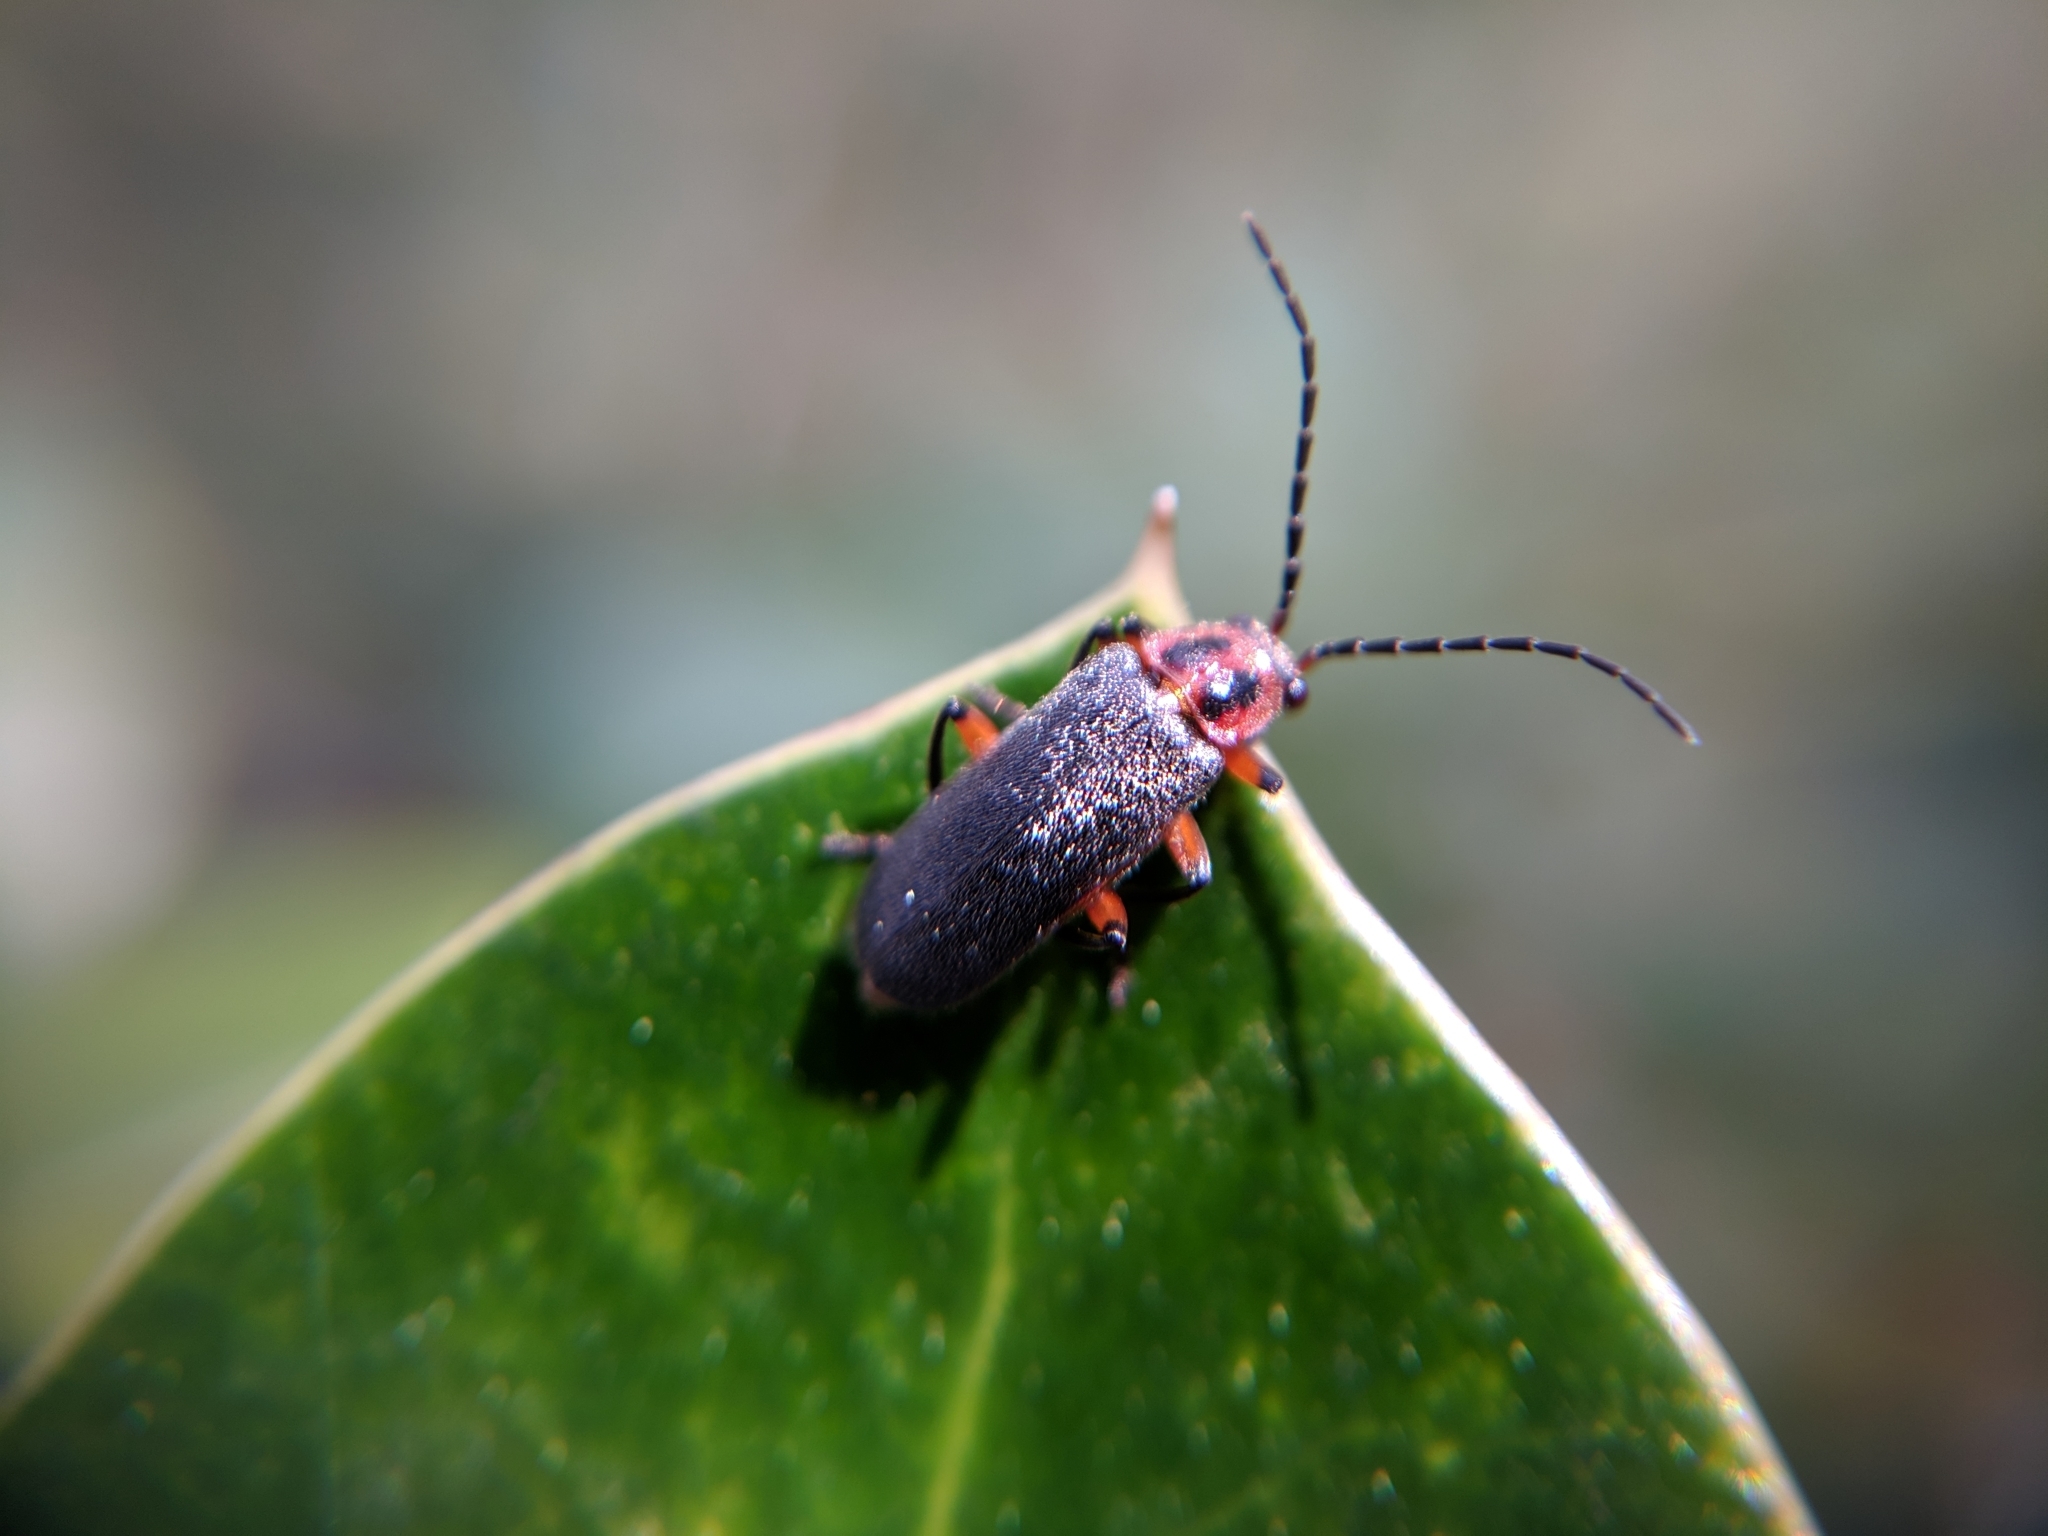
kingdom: Animalia
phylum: Arthropoda
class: Insecta
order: Coleoptera
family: Cantharidae
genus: Atalantycha
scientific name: Atalantycha bilineata
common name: Two-lined leatherwing
